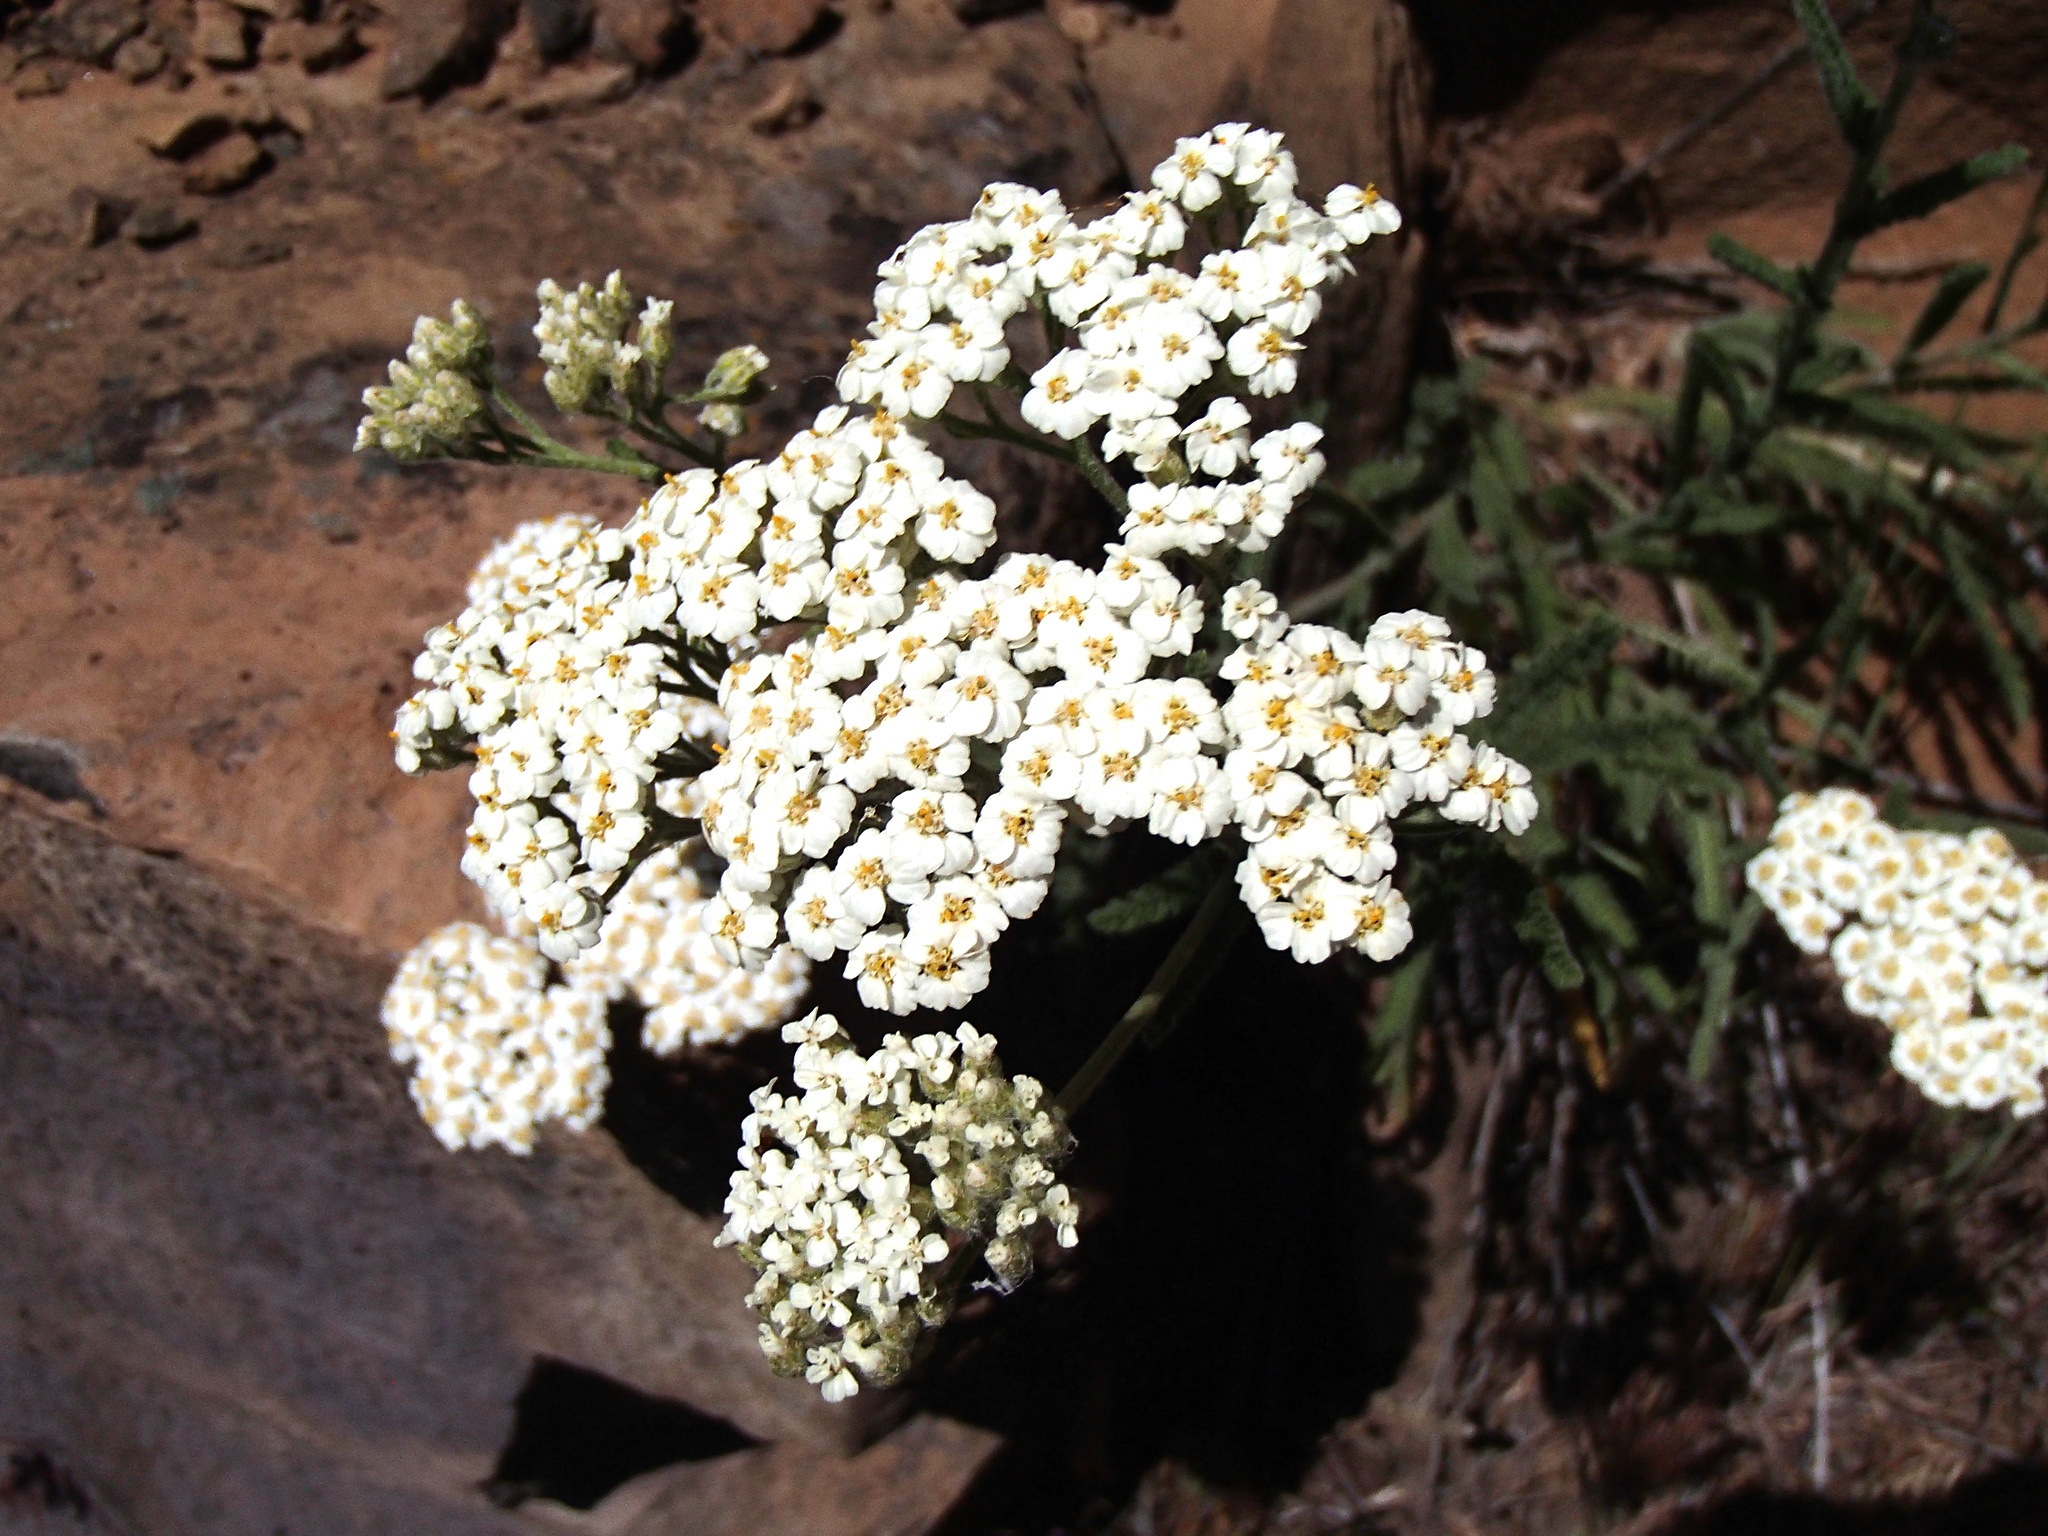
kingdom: Plantae
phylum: Tracheophyta
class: Magnoliopsida
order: Asterales
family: Asteraceae
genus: Achillea
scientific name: Achillea millefolium
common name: Yarrow
